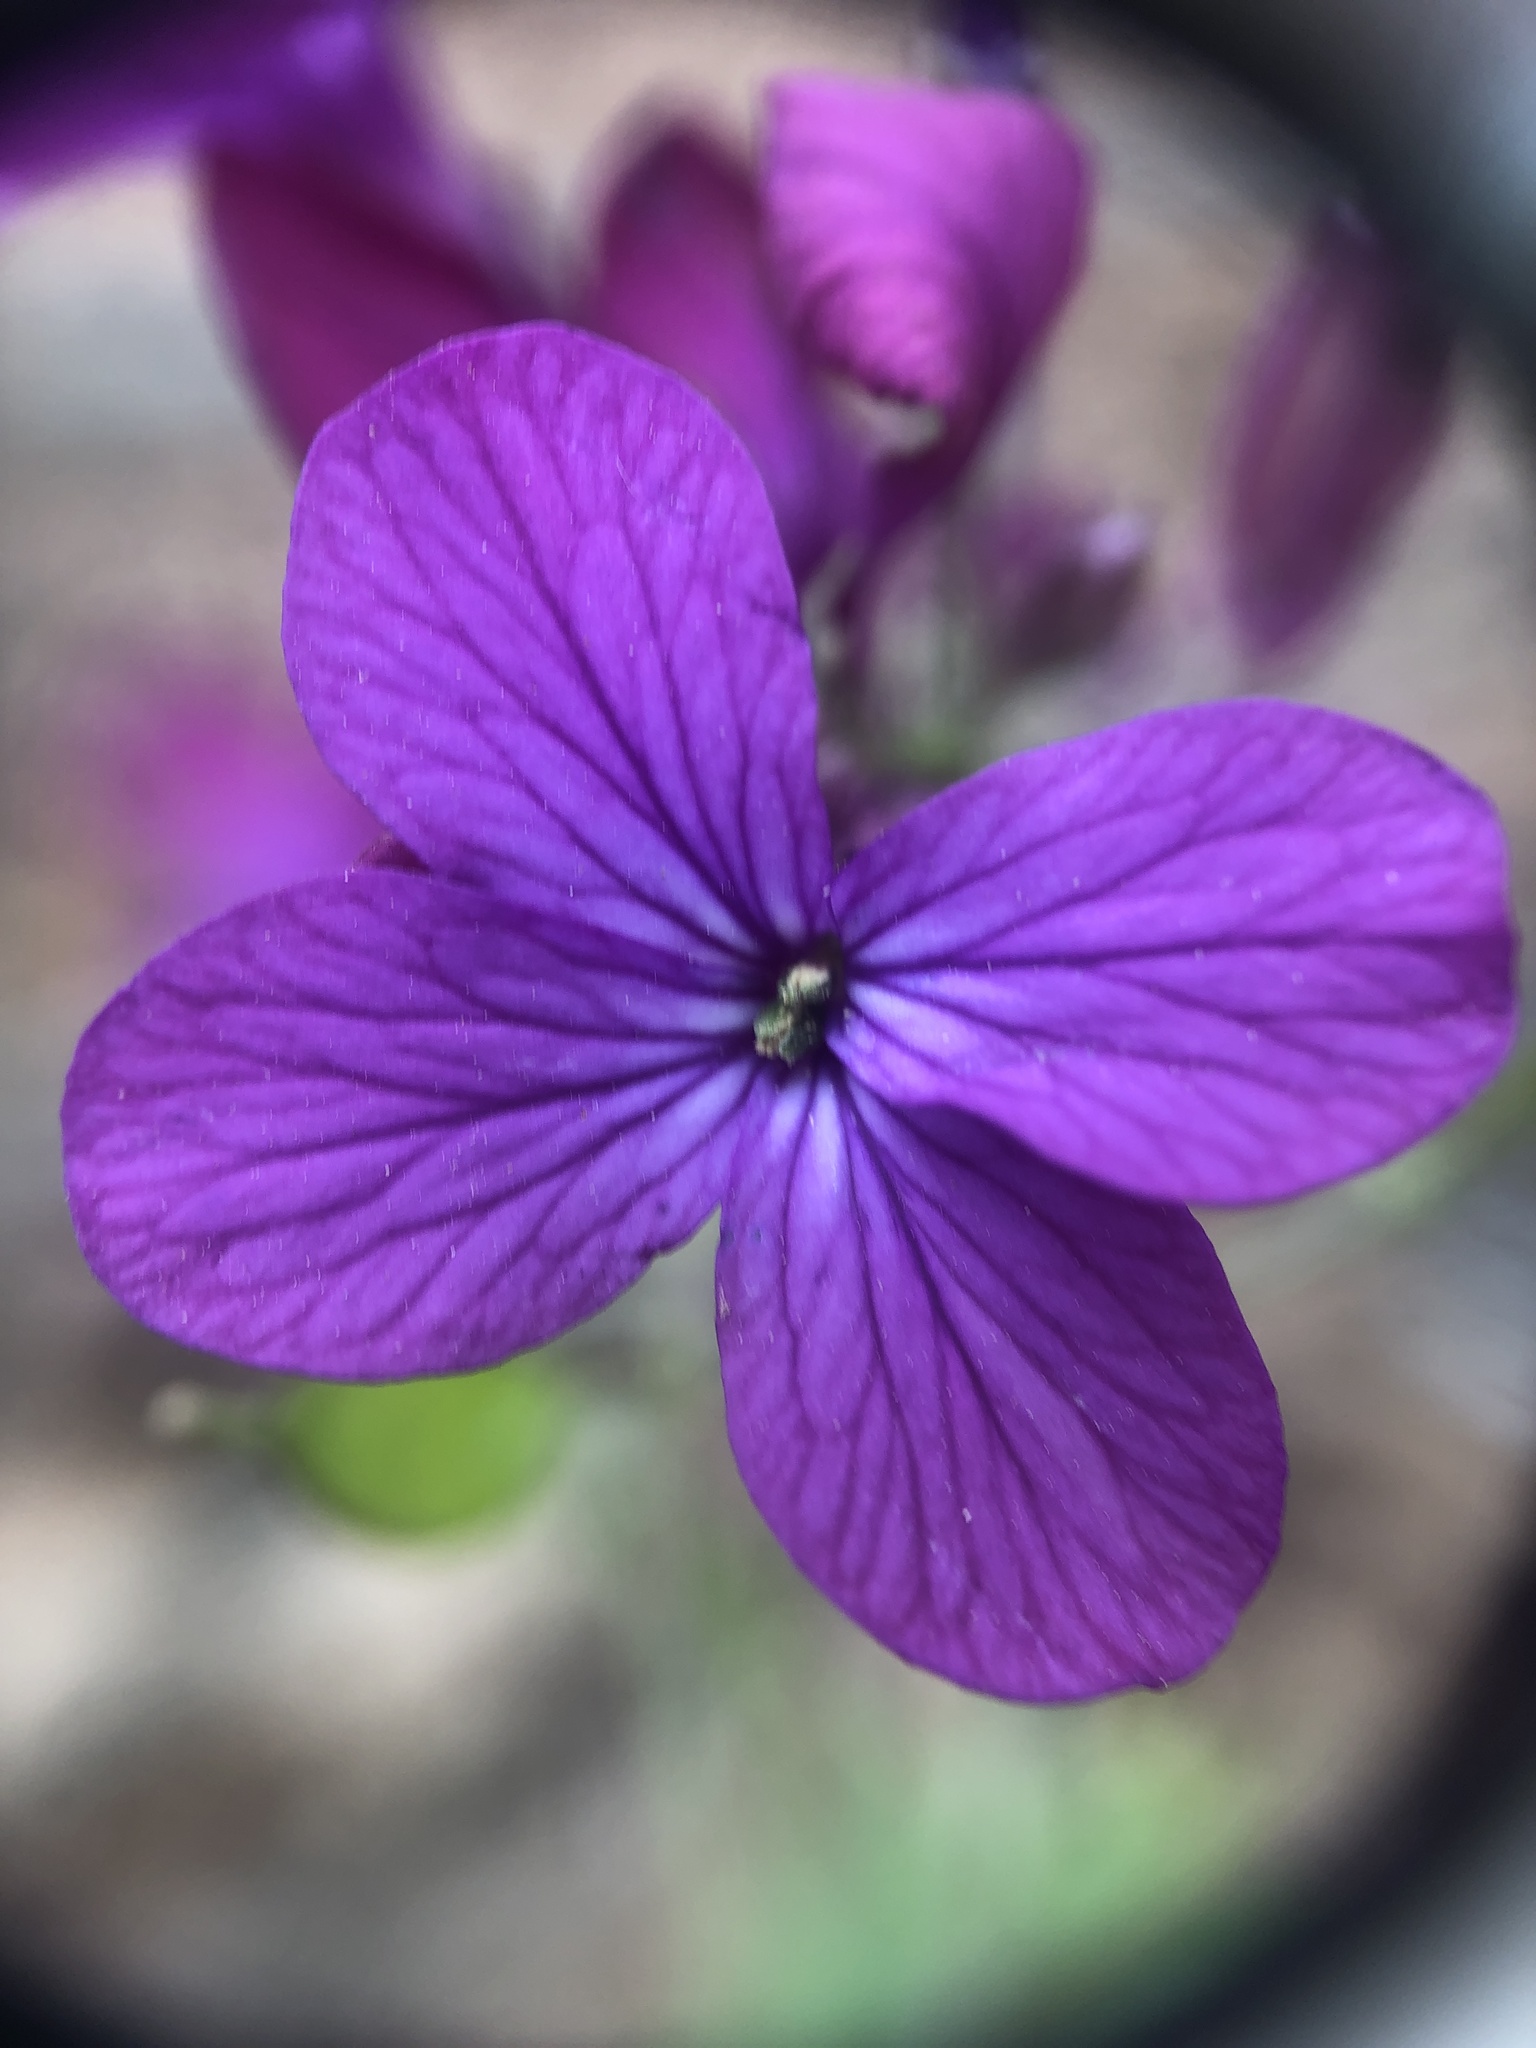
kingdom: Plantae
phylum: Tracheophyta
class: Magnoliopsida
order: Brassicales
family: Brassicaceae
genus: Lunaria
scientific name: Lunaria annua
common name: Honesty
